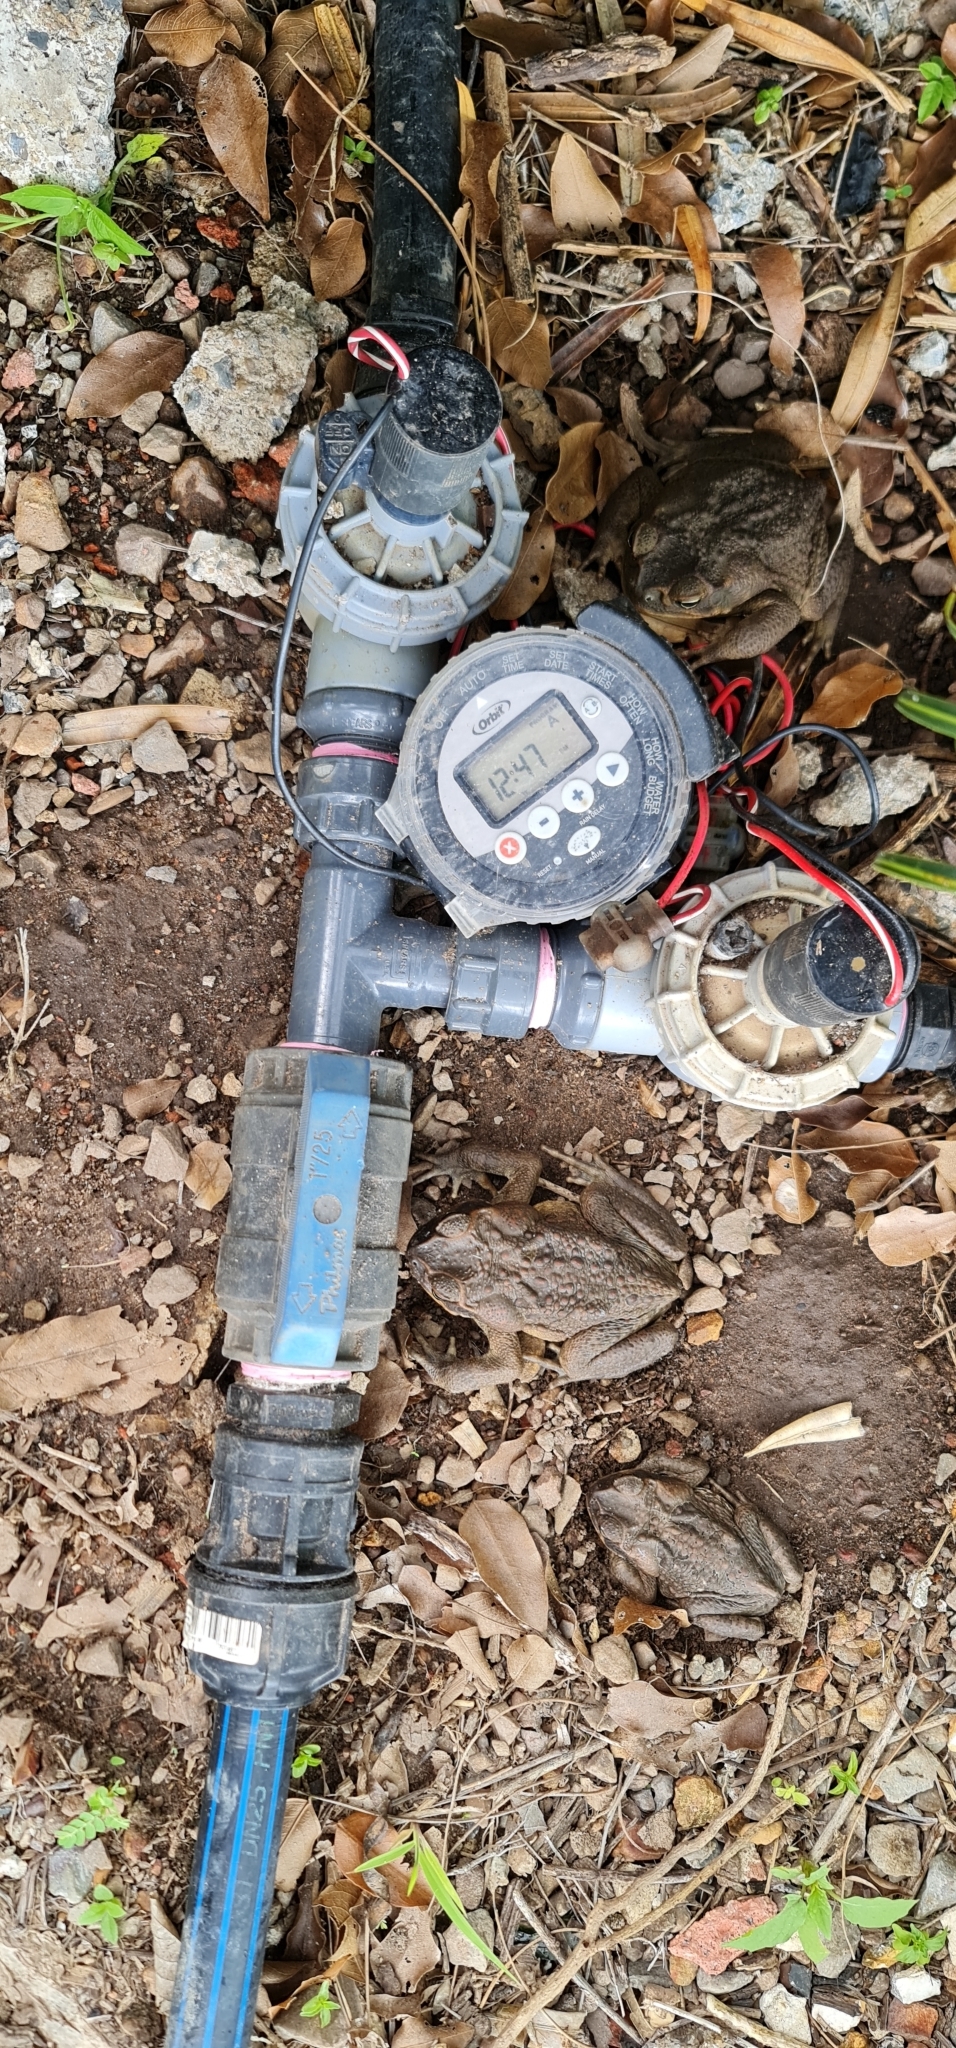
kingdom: Animalia
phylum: Chordata
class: Amphibia
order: Anura
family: Bufonidae
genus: Rhinella
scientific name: Rhinella marina
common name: Cane toad
